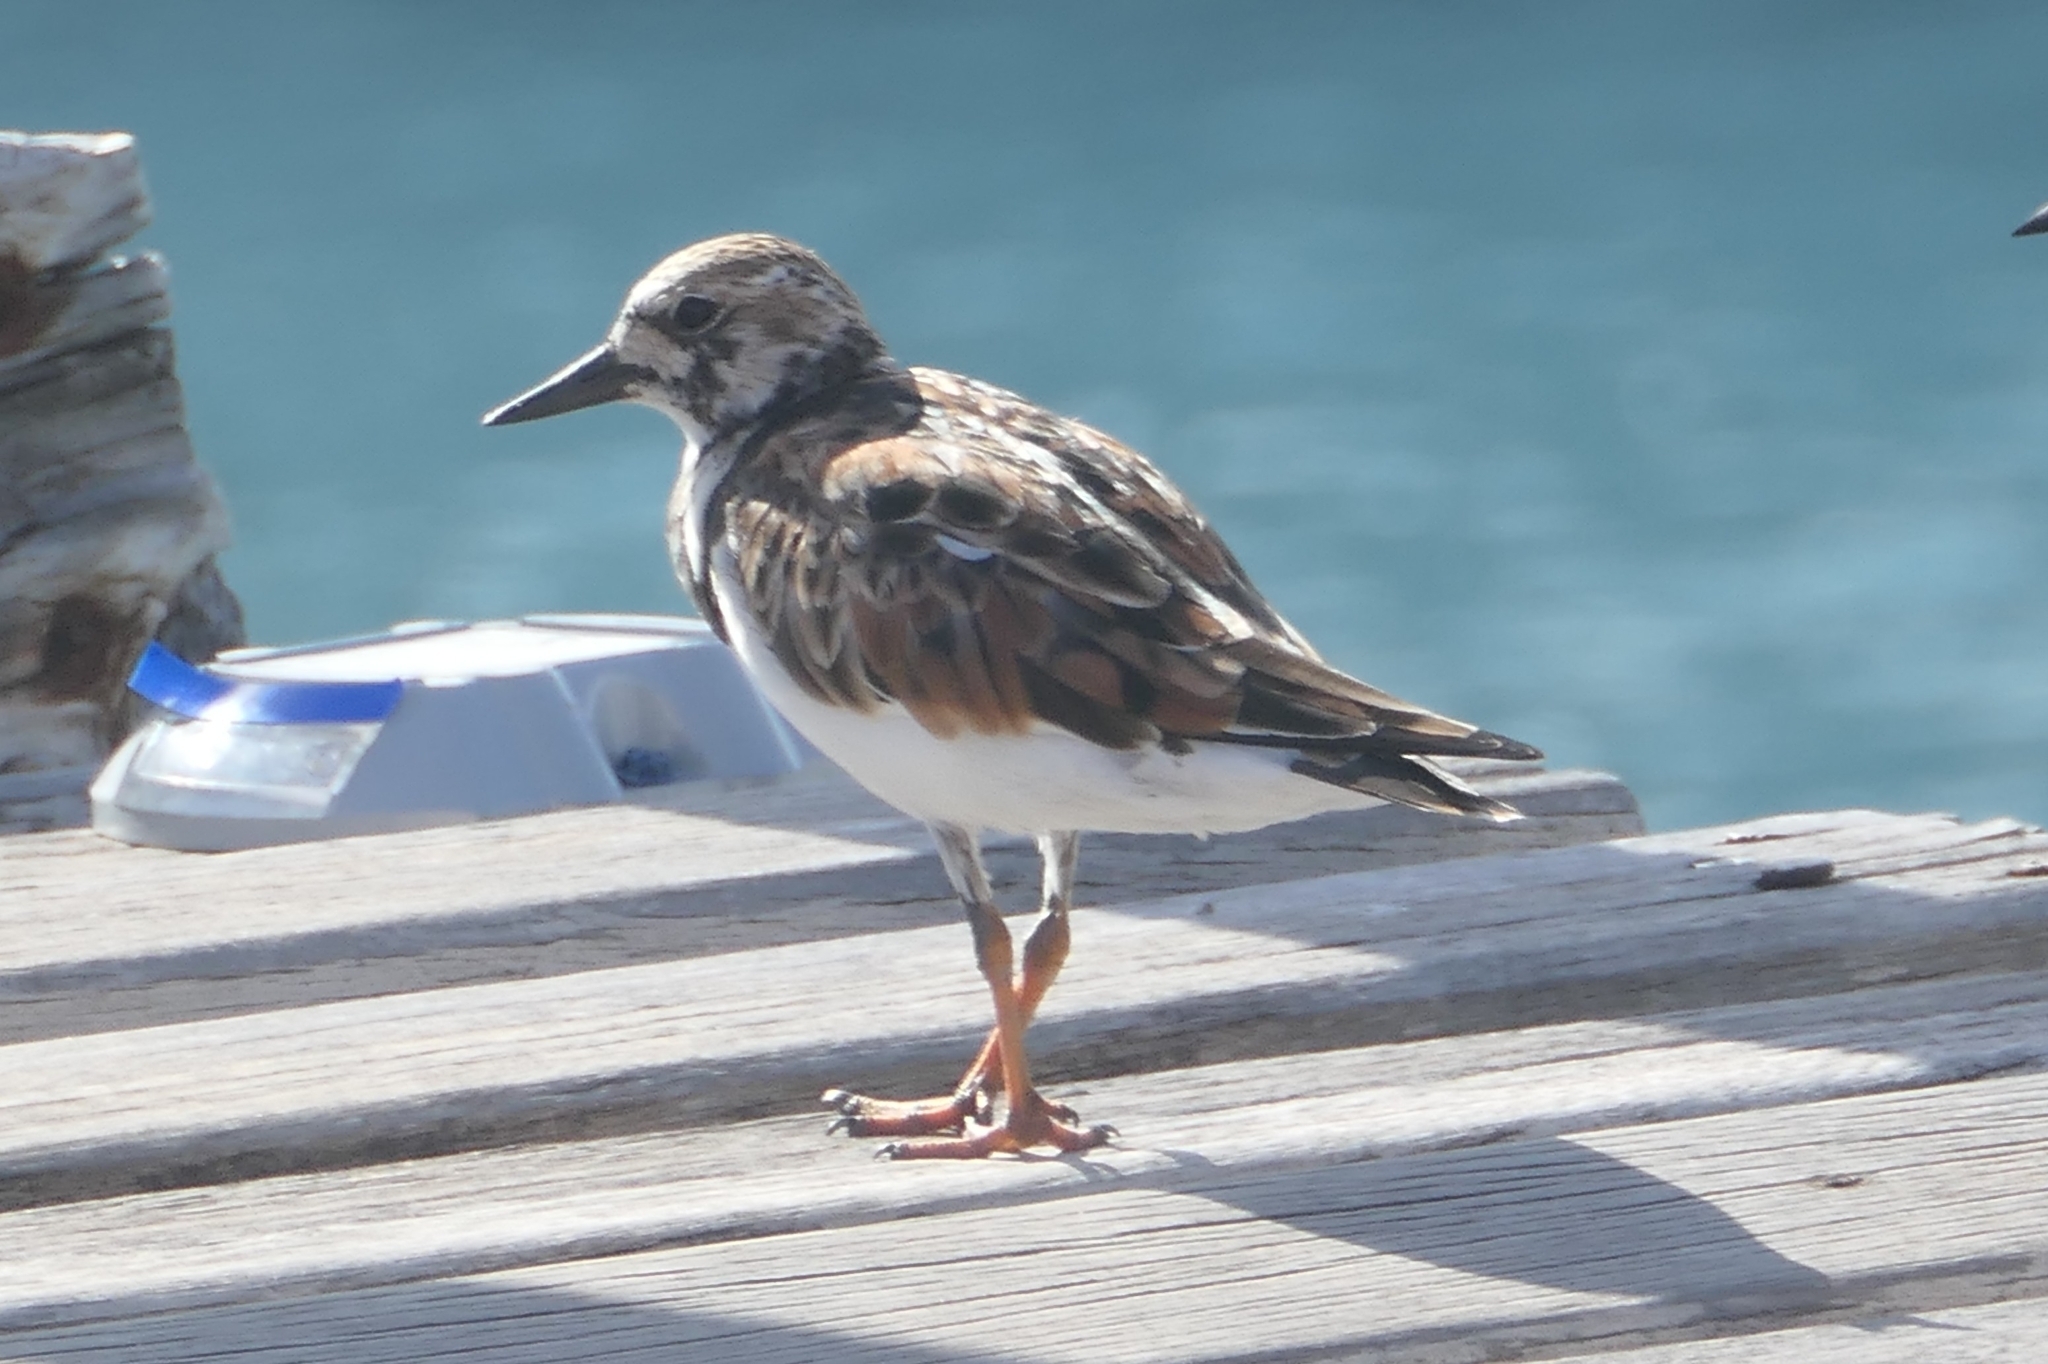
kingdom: Animalia
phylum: Chordata
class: Aves
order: Charadriiformes
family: Scolopacidae
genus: Arenaria
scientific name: Arenaria interpres
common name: Ruddy turnstone
